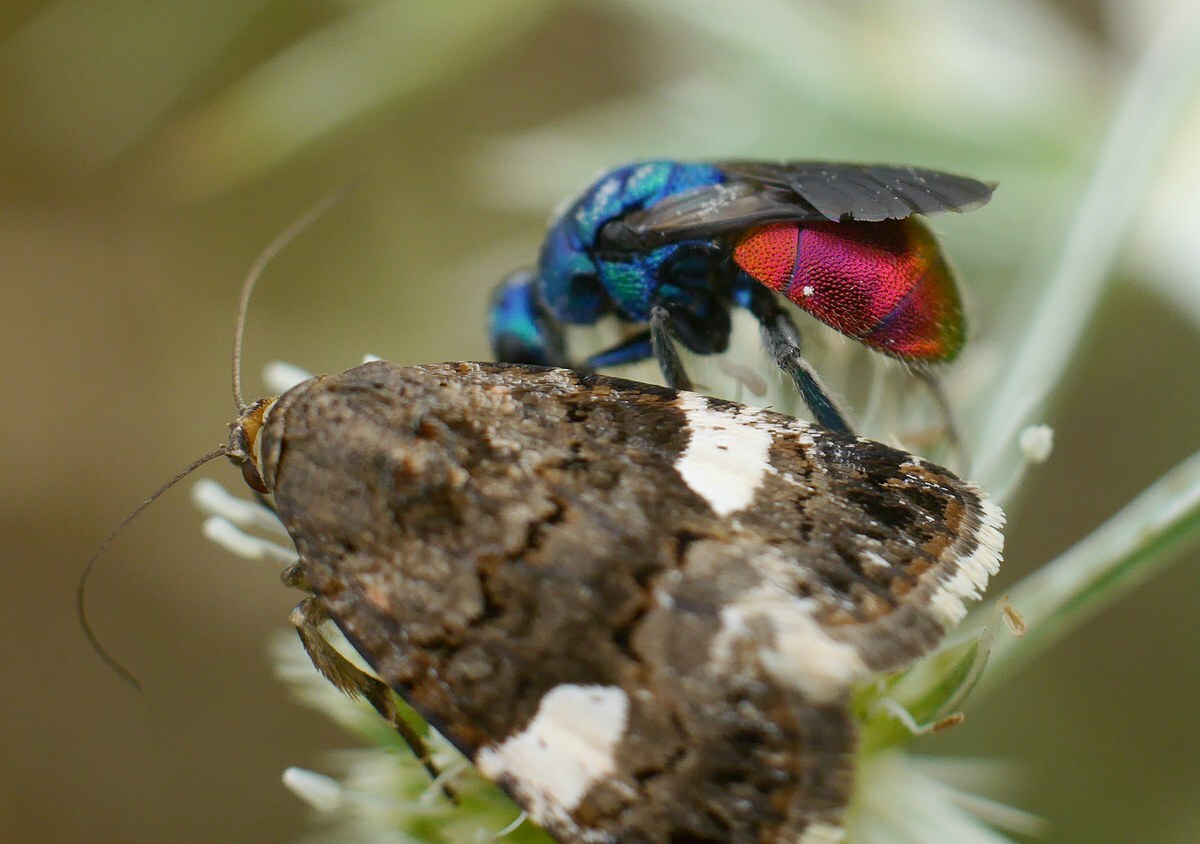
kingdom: Animalia
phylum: Arthropoda
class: Insecta
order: Lepidoptera
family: Erebidae
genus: Tyta
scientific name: Tyta luctuosa
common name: Four-spotted
